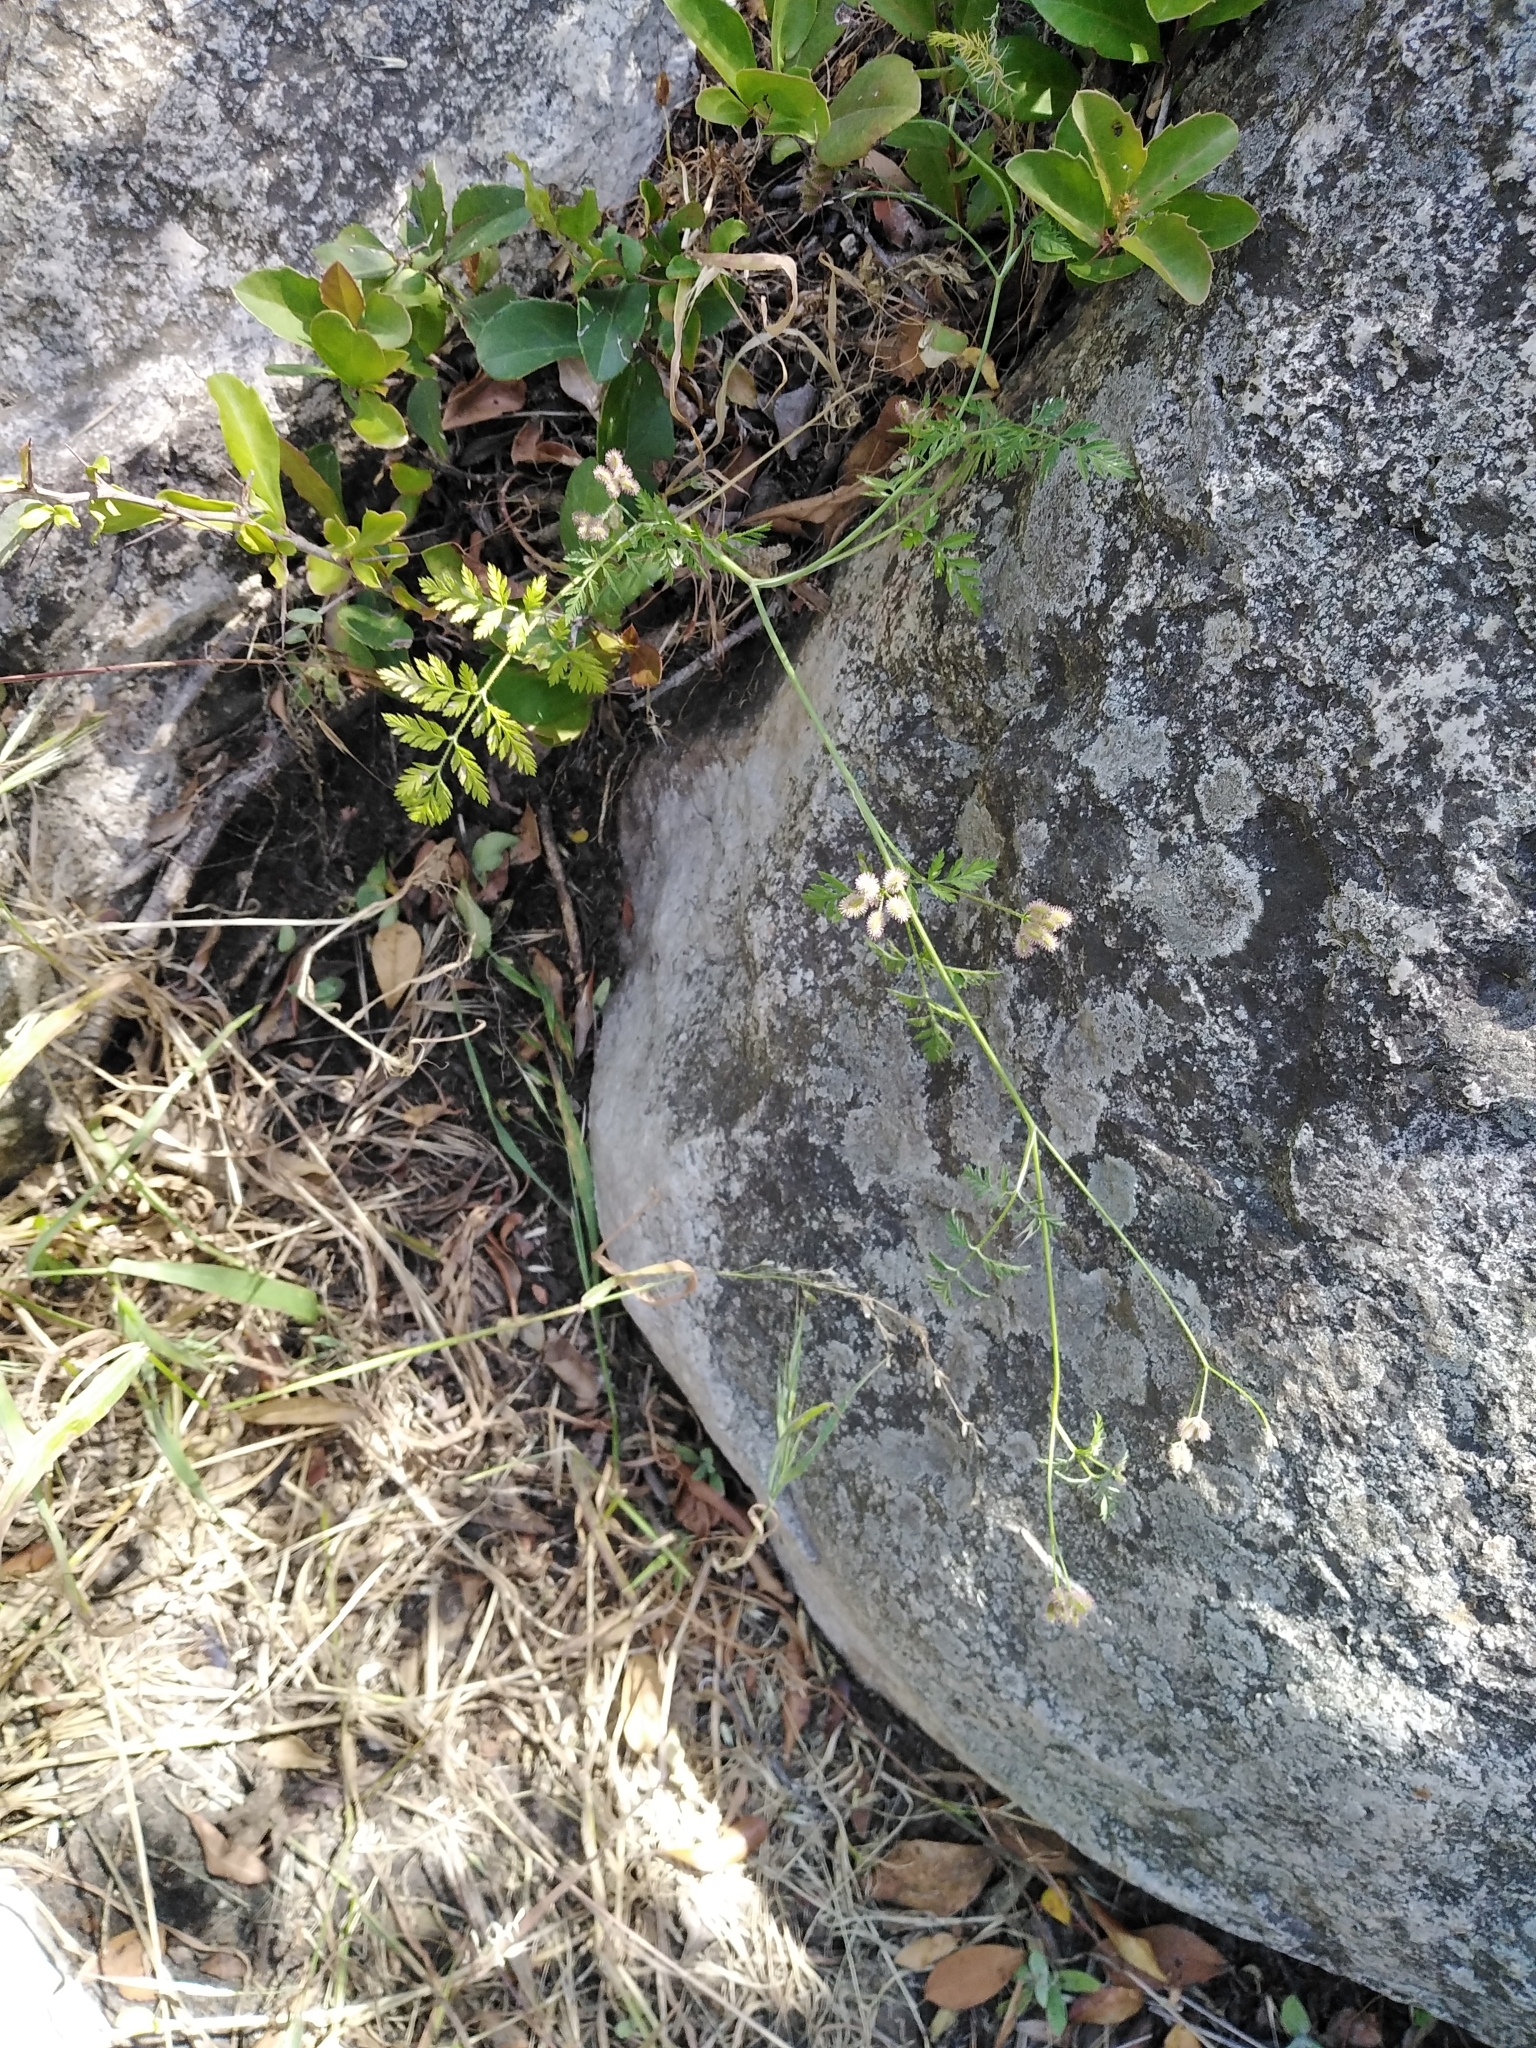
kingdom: Plantae
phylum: Tracheophyta
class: Magnoliopsida
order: Apiales
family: Apiaceae
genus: Torilis
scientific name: Torilis arvensis
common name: Spreading hedge-parsley
